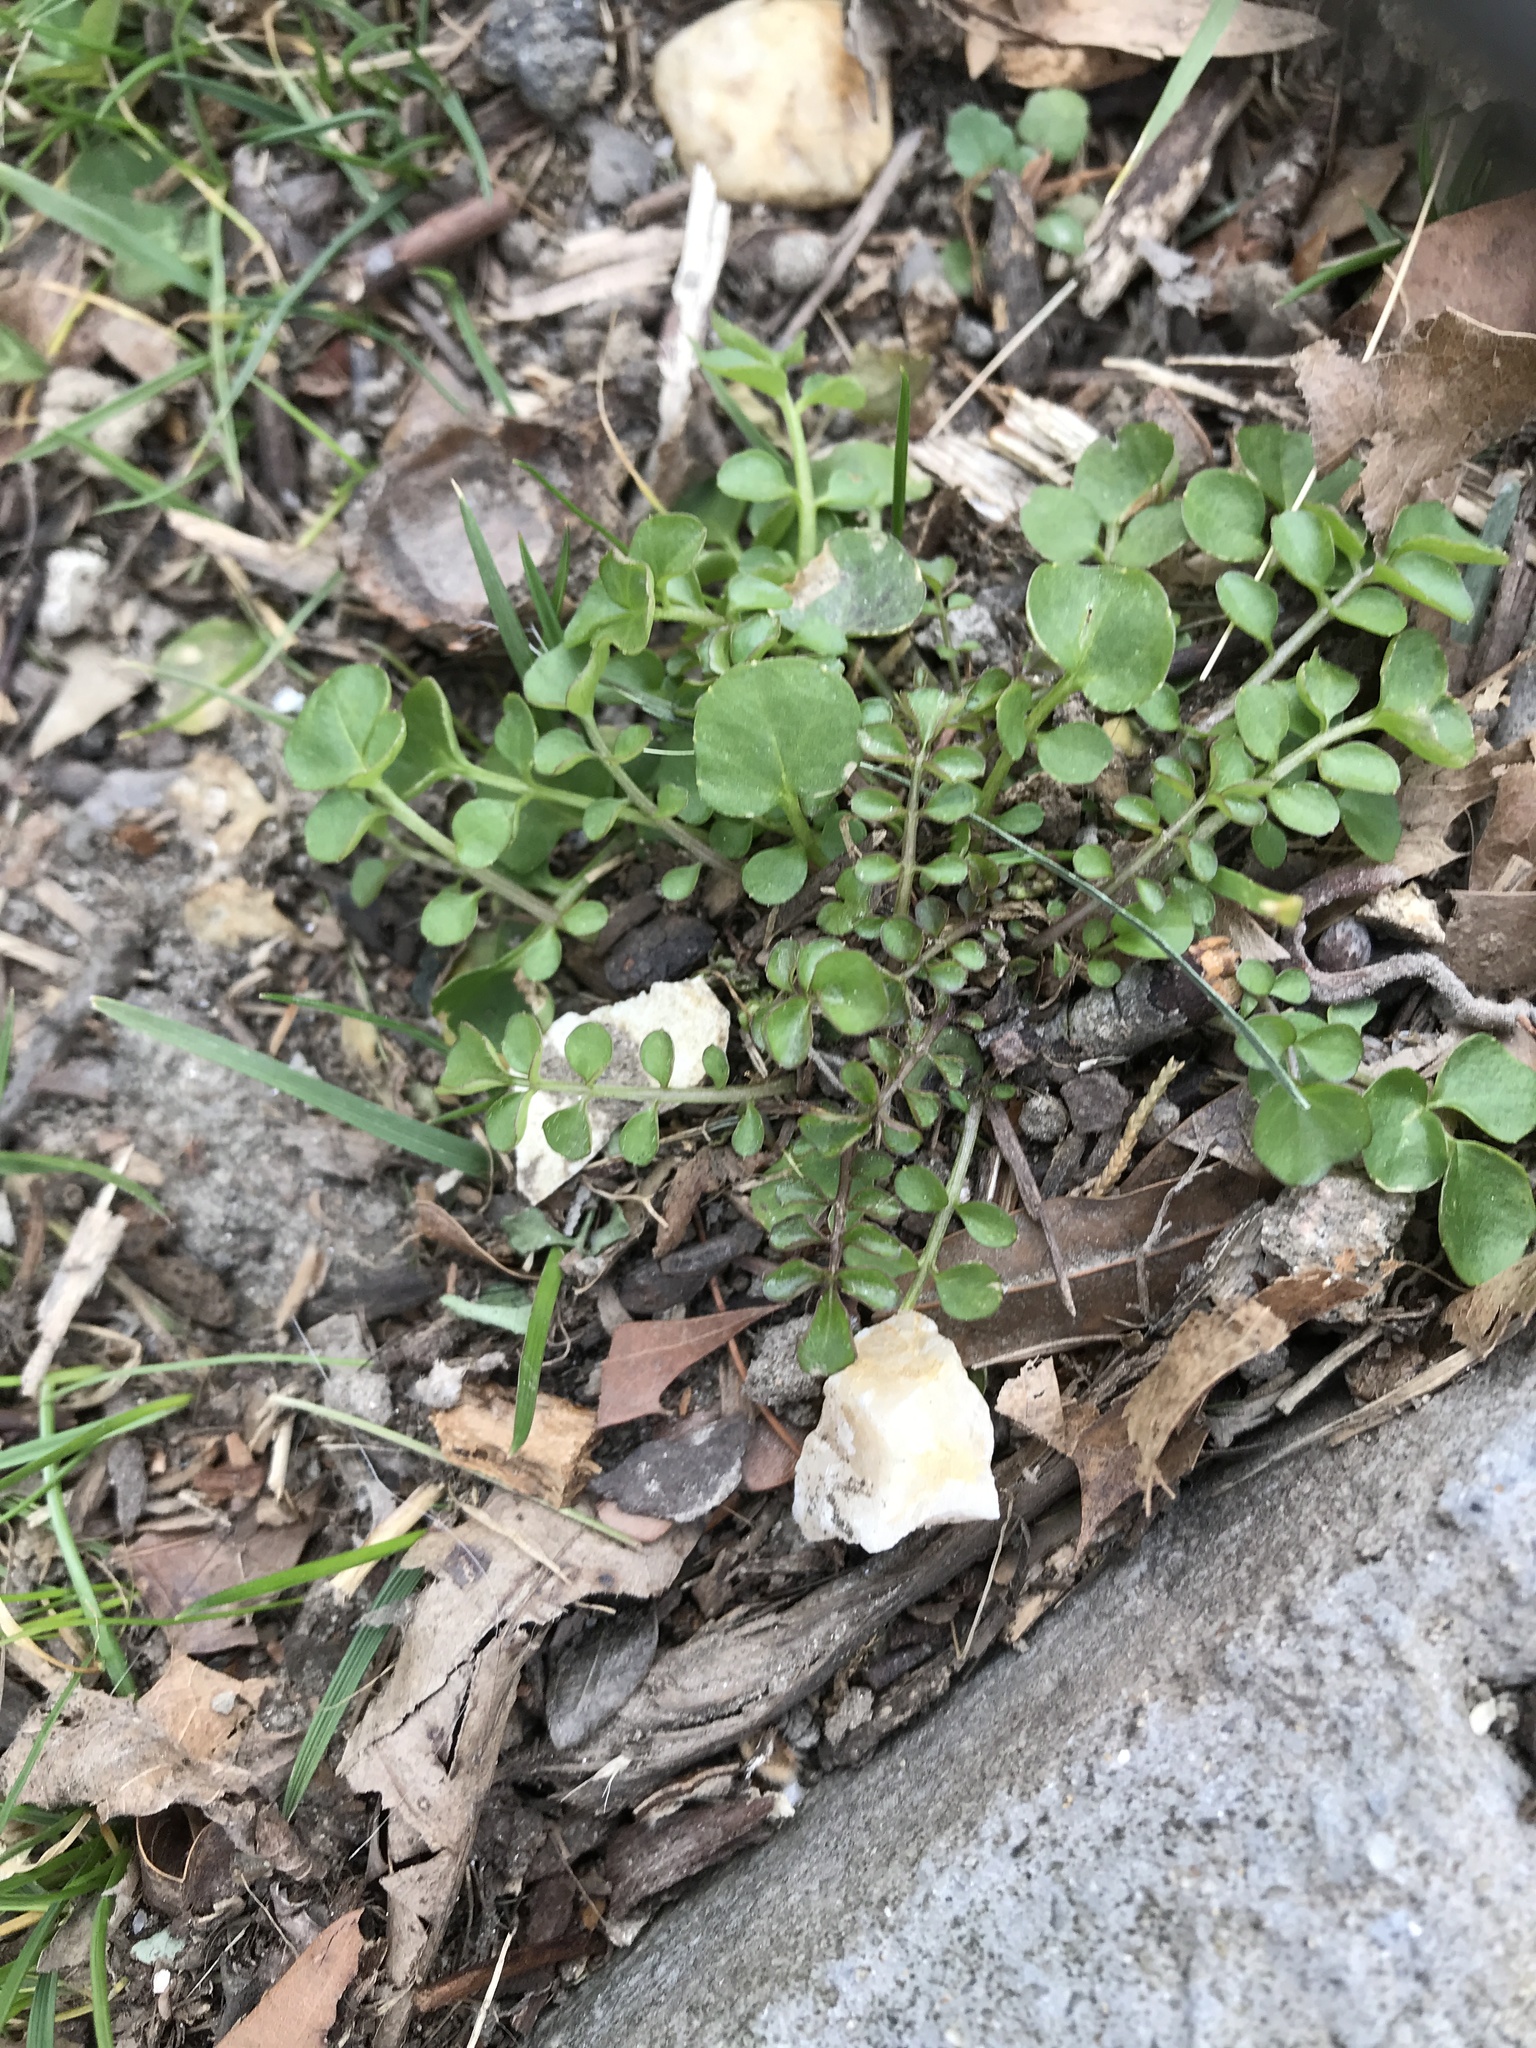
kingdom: Plantae
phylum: Tracheophyta
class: Magnoliopsida
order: Brassicales
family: Brassicaceae
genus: Cardamine
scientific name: Cardamine hirsuta
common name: Hairy bittercress
